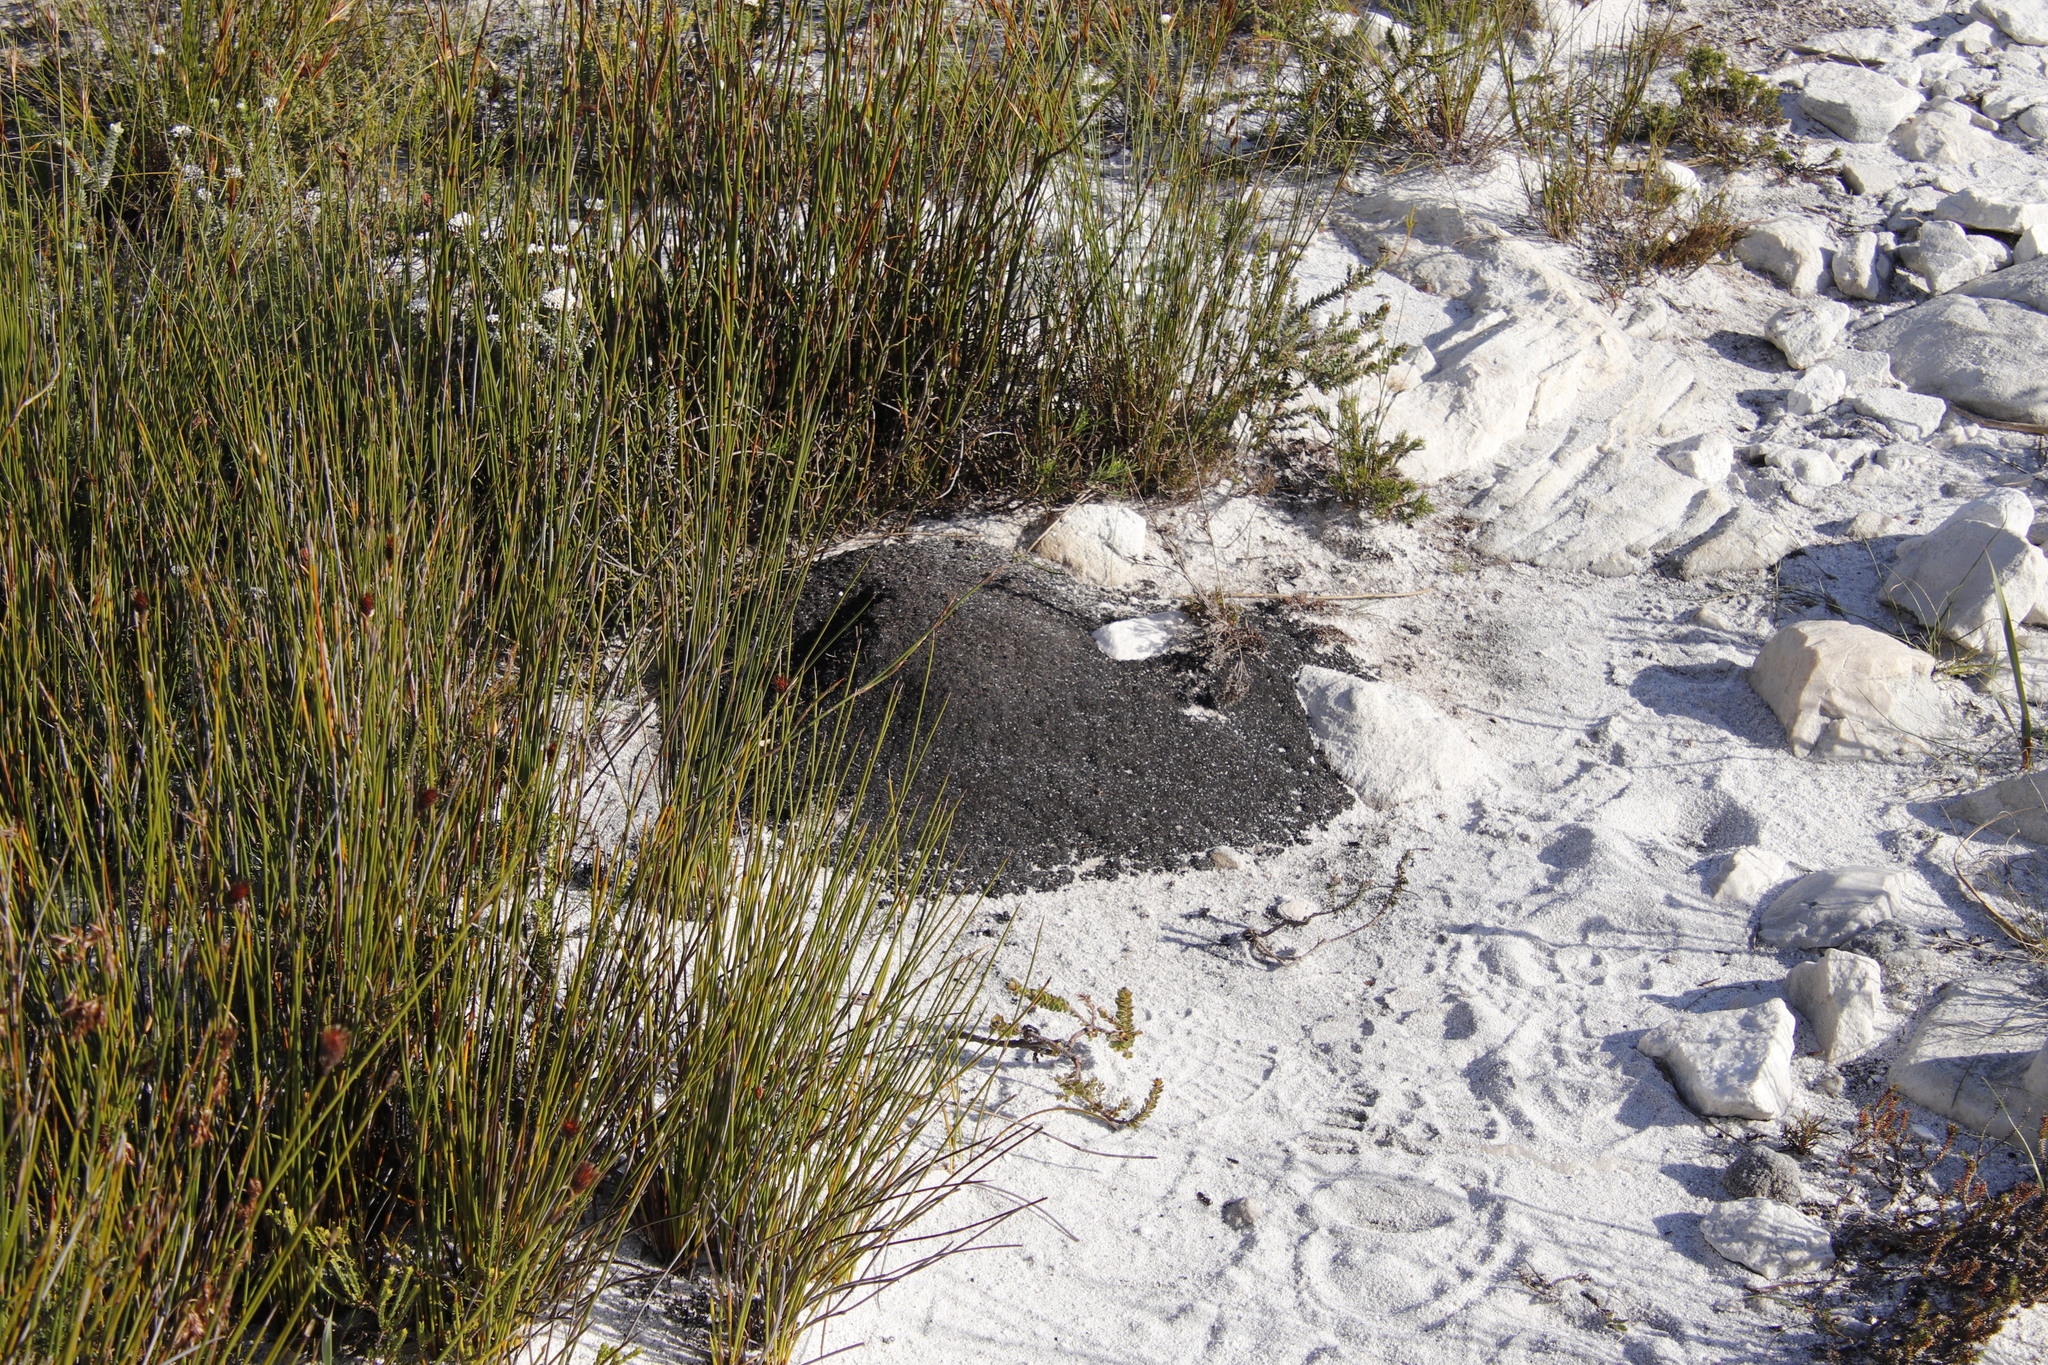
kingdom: Animalia
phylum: Arthropoda
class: Insecta
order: Blattodea
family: Termitidae
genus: Amitermes
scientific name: Amitermes hastatus
